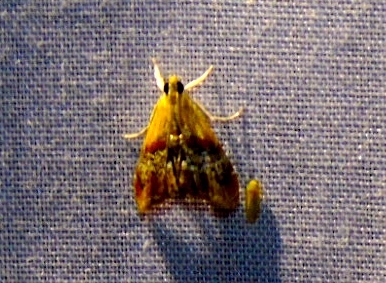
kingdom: Animalia
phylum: Arthropoda
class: Insecta
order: Lepidoptera
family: Crambidae
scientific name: Crambidae
